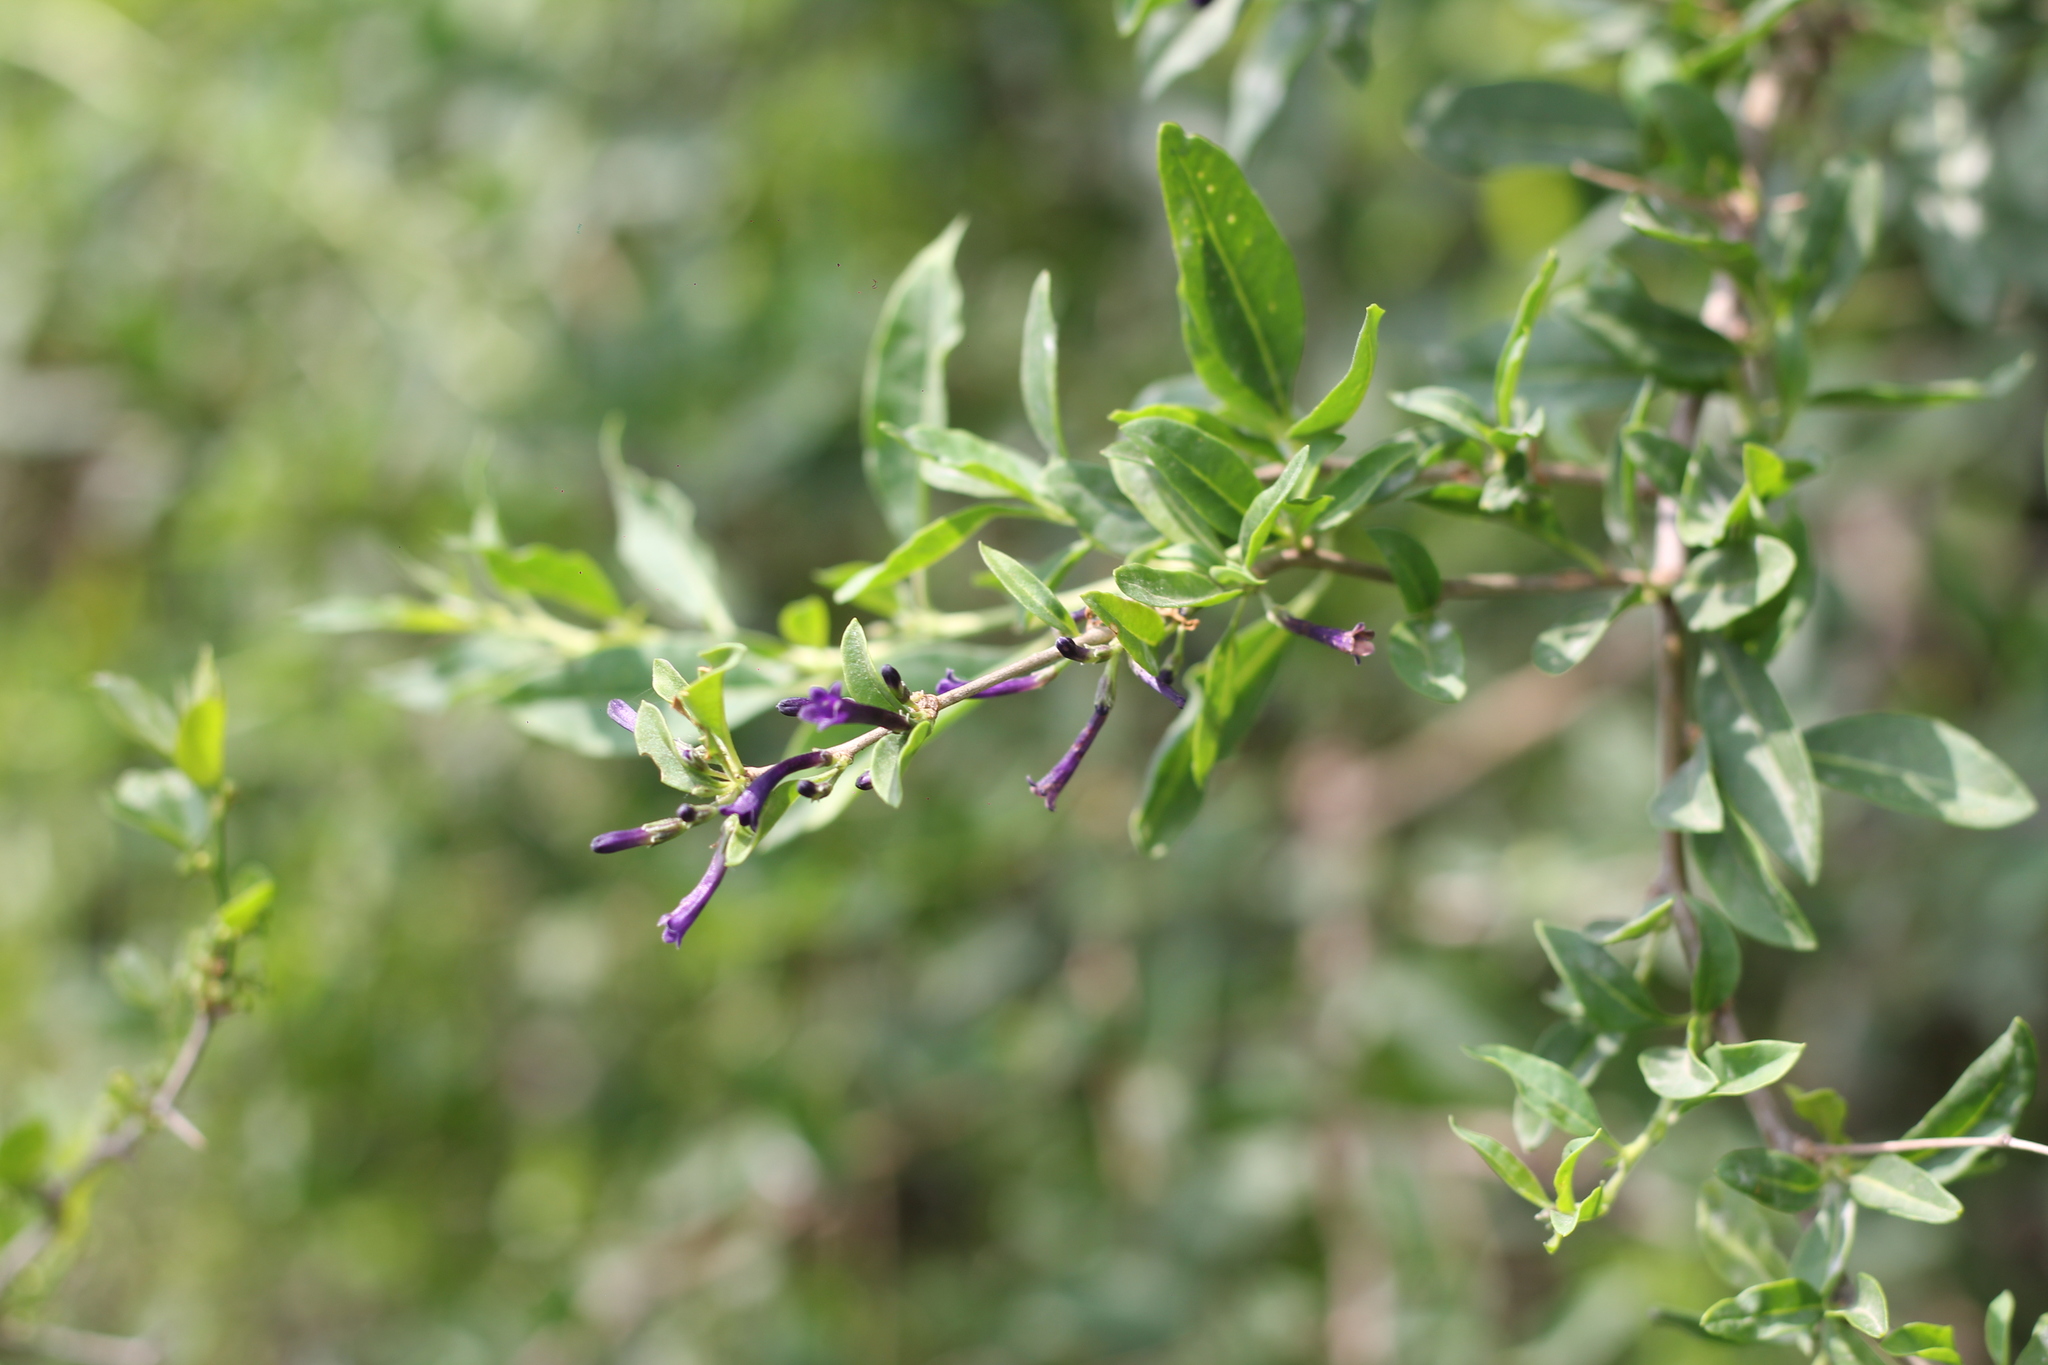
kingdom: Plantae
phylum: Tracheophyta
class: Magnoliopsida
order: Solanales
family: Solanaceae
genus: Lycium
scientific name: Lycium cestroides
